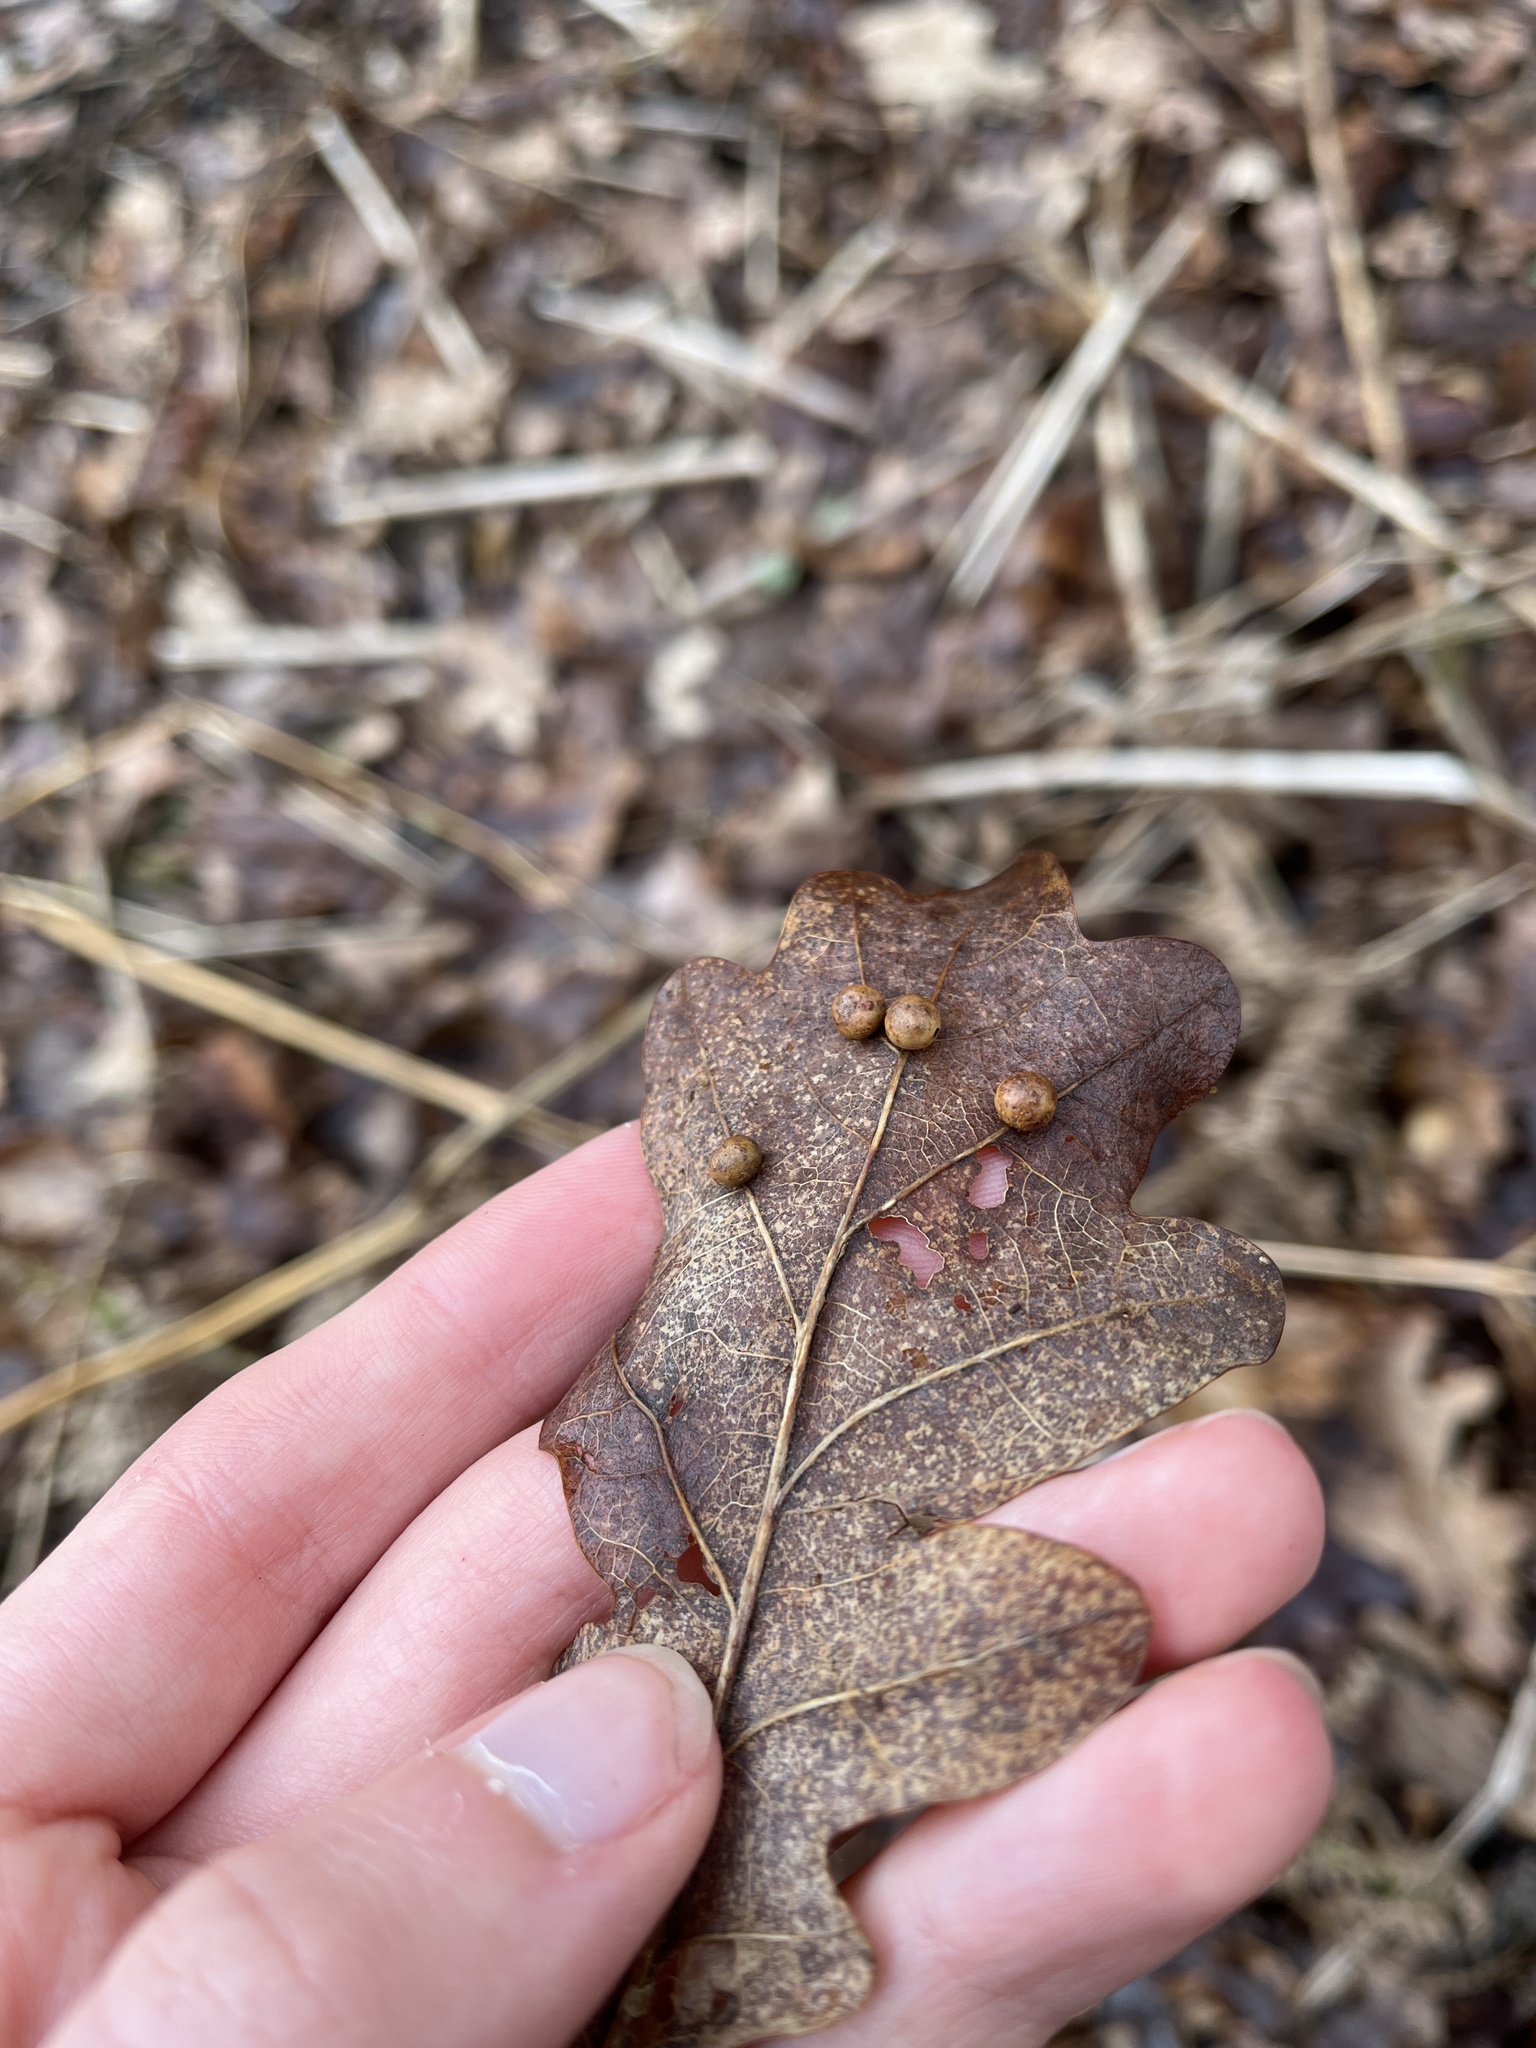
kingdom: Animalia
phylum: Arthropoda
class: Insecta
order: Hymenoptera
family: Cynipidae
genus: Cynips
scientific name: Cynips divisa
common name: Red currant gall
